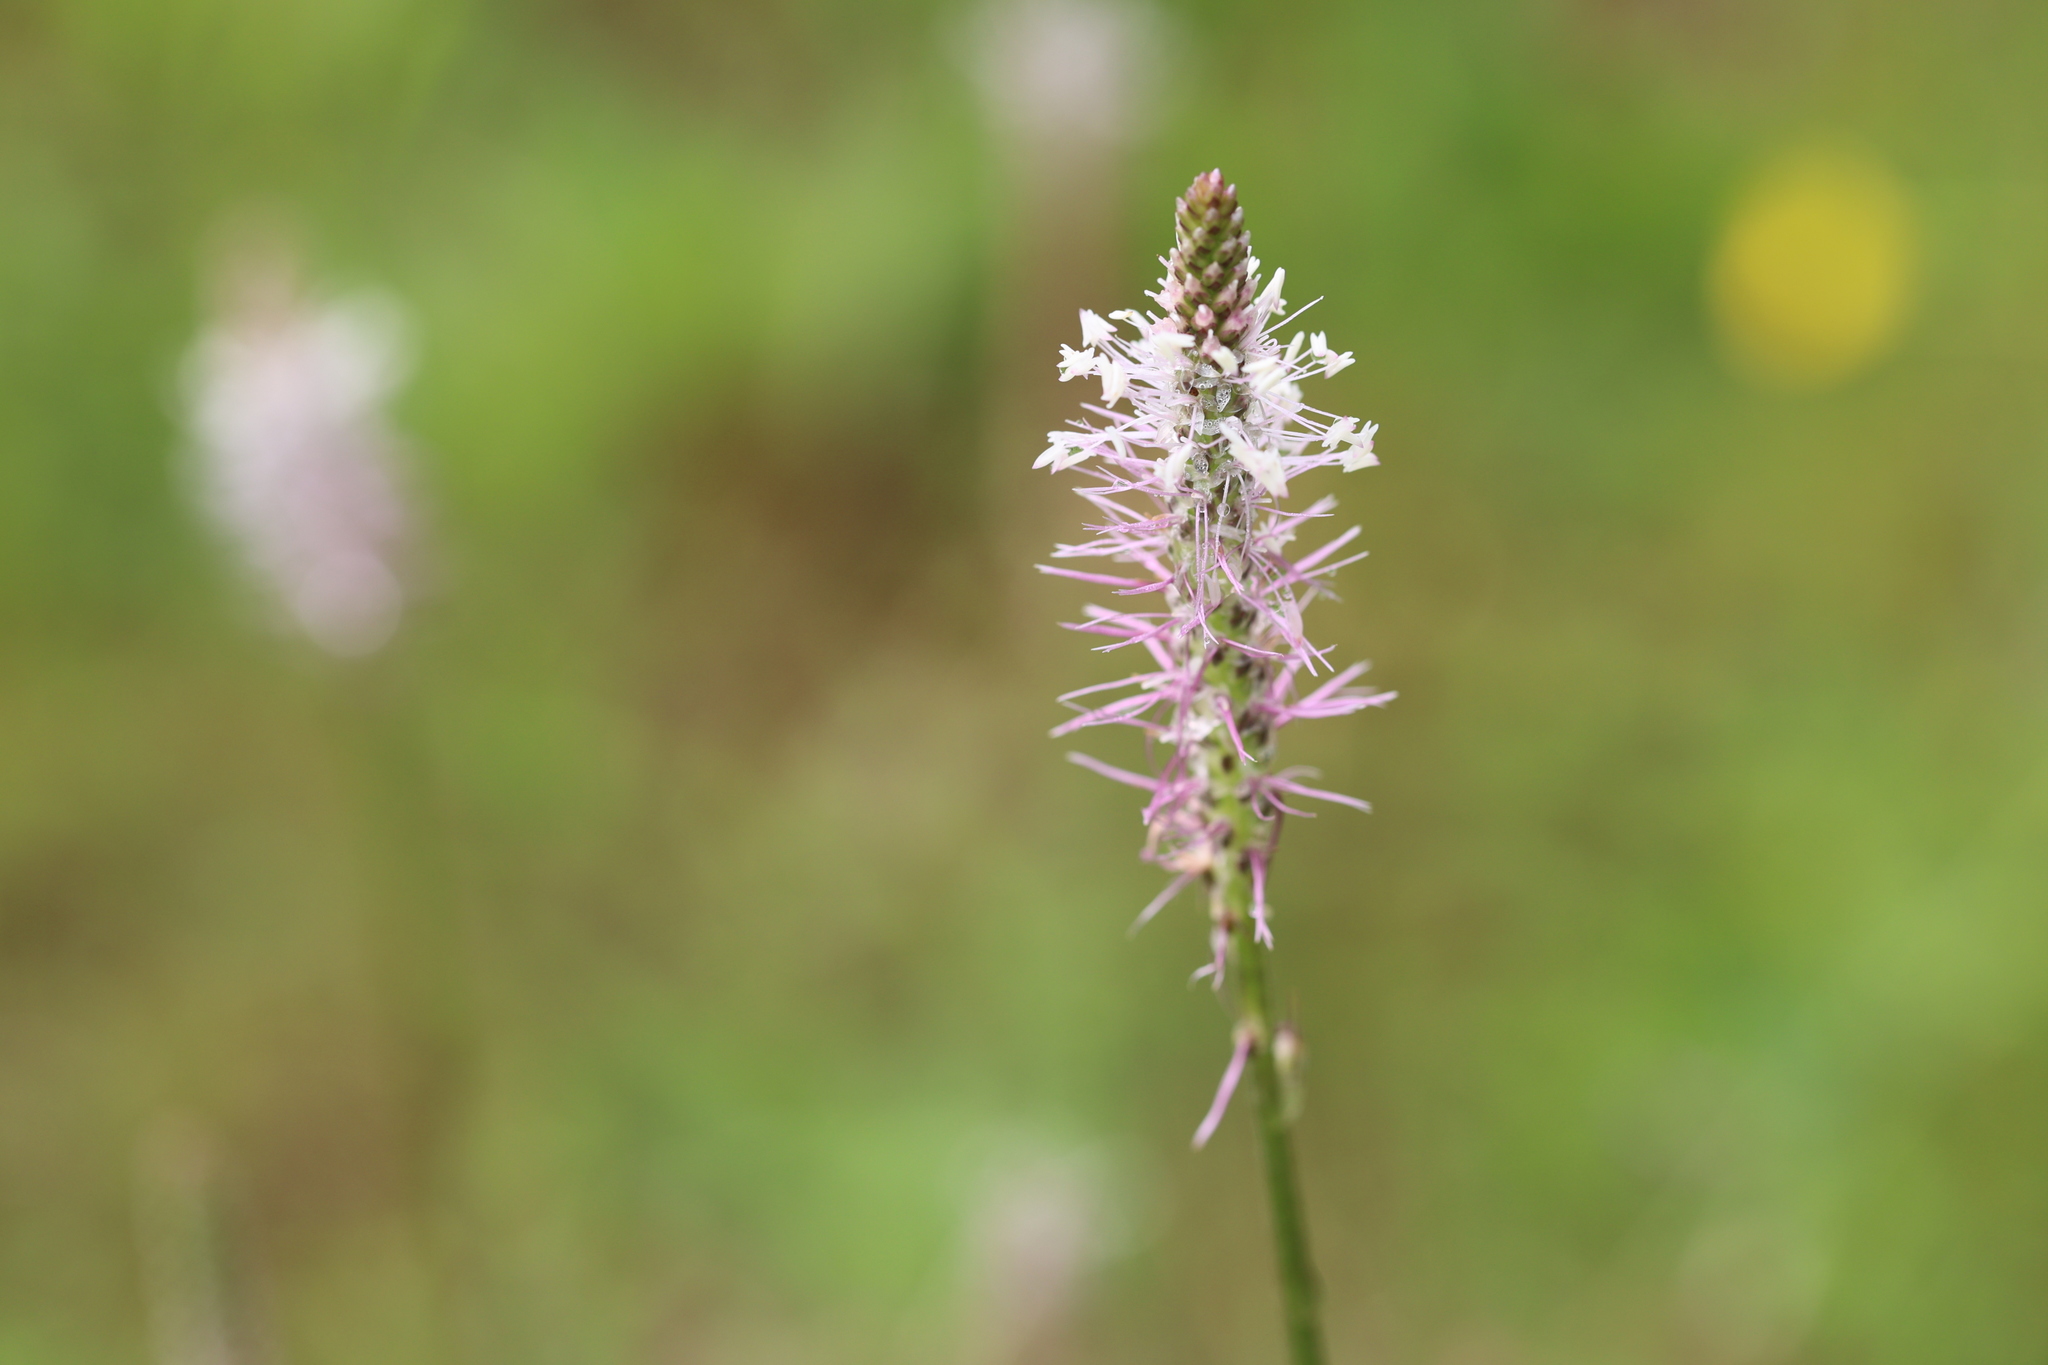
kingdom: Plantae
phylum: Tracheophyta
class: Magnoliopsida
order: Lamiales
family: Plantaginaceae
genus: Plantago
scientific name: Plantago media
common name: Hoary plantain
